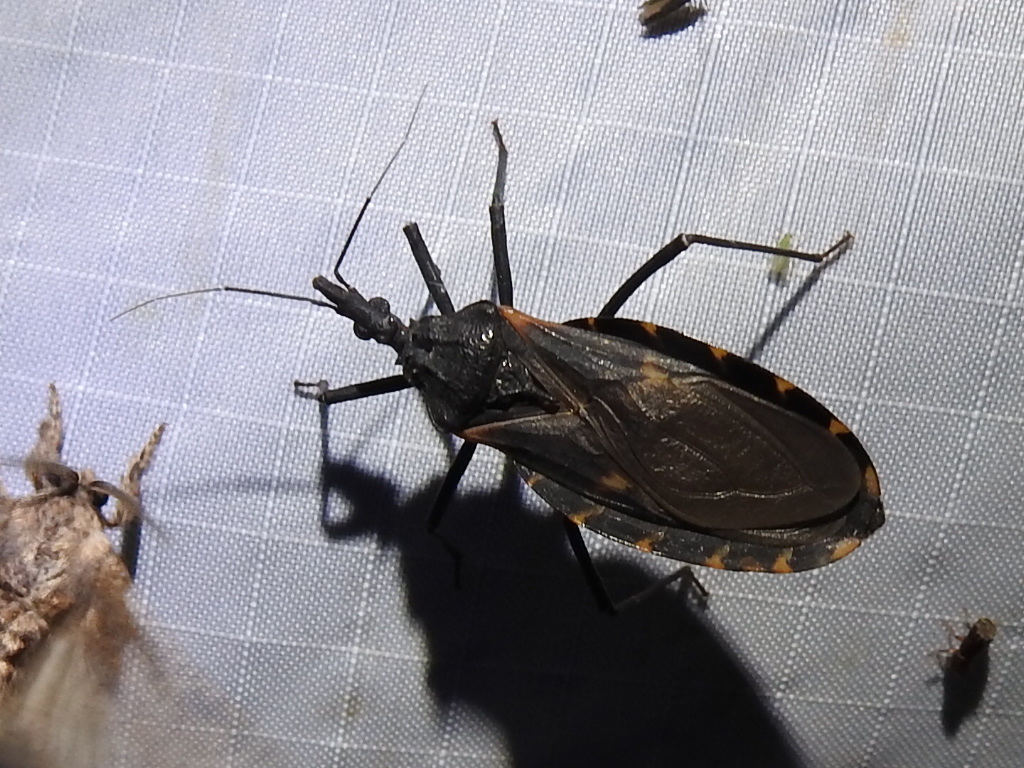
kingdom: Animalia
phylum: Arthropoda
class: Insecta
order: Hemiptera
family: Reduviidae
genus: Triatoma
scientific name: Triatoma gerstaeckeri
